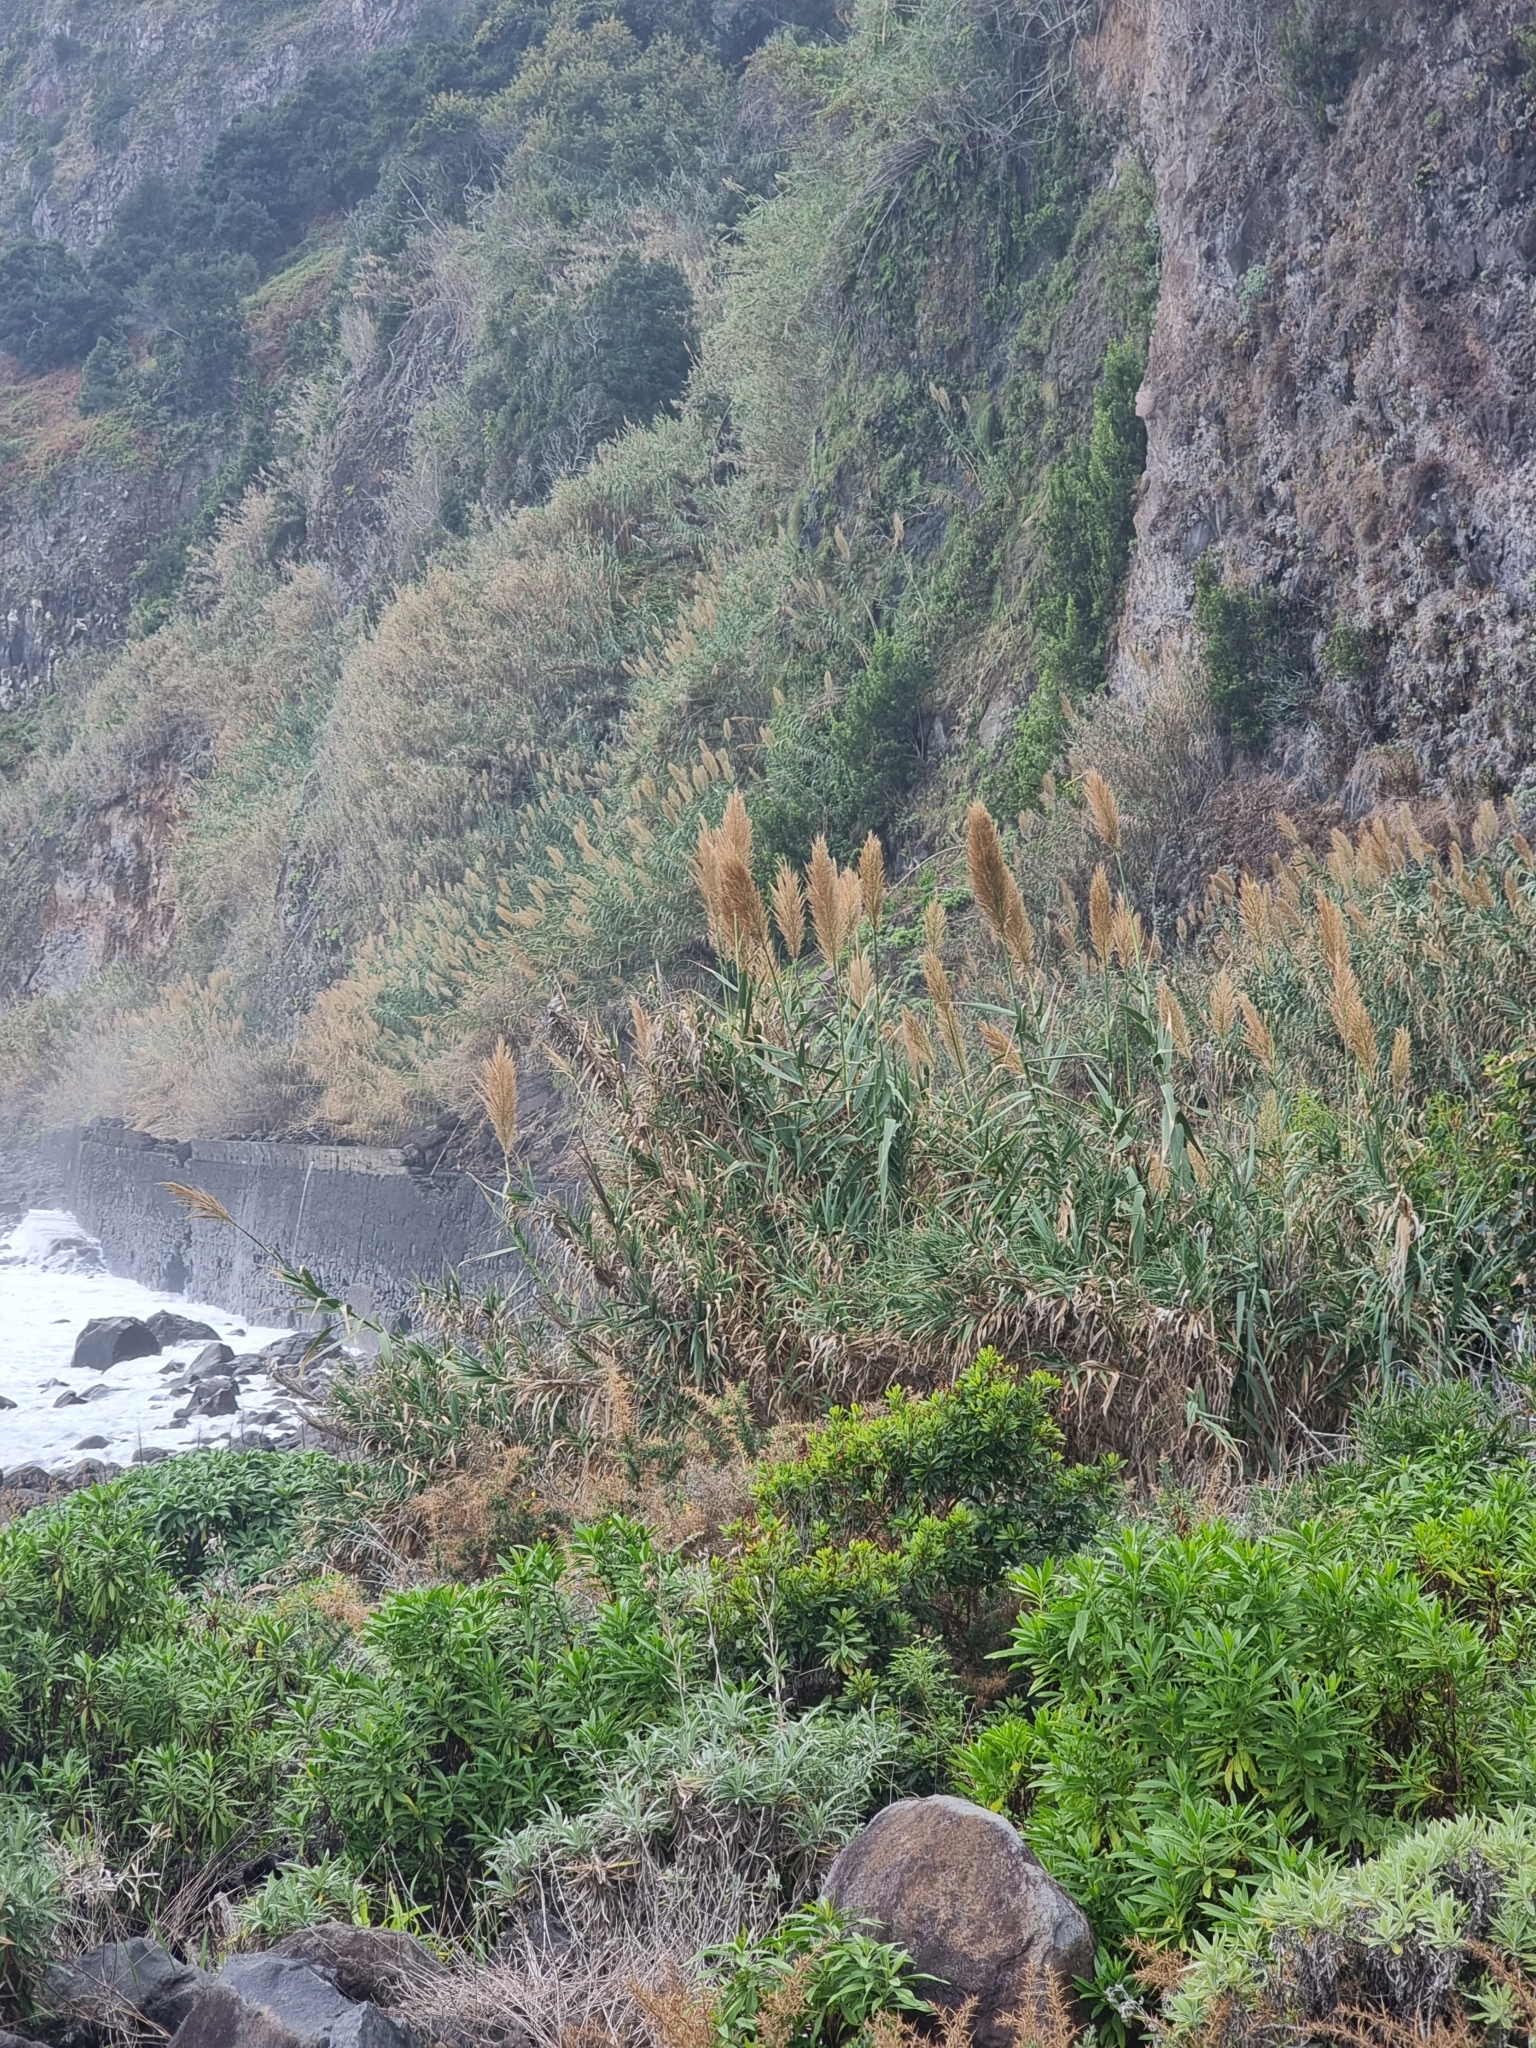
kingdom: Plantae
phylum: Tracheophyta
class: Liliopsida
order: Poales
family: Poaceae
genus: Arundo
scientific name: Arundo donax
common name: Giant reed
